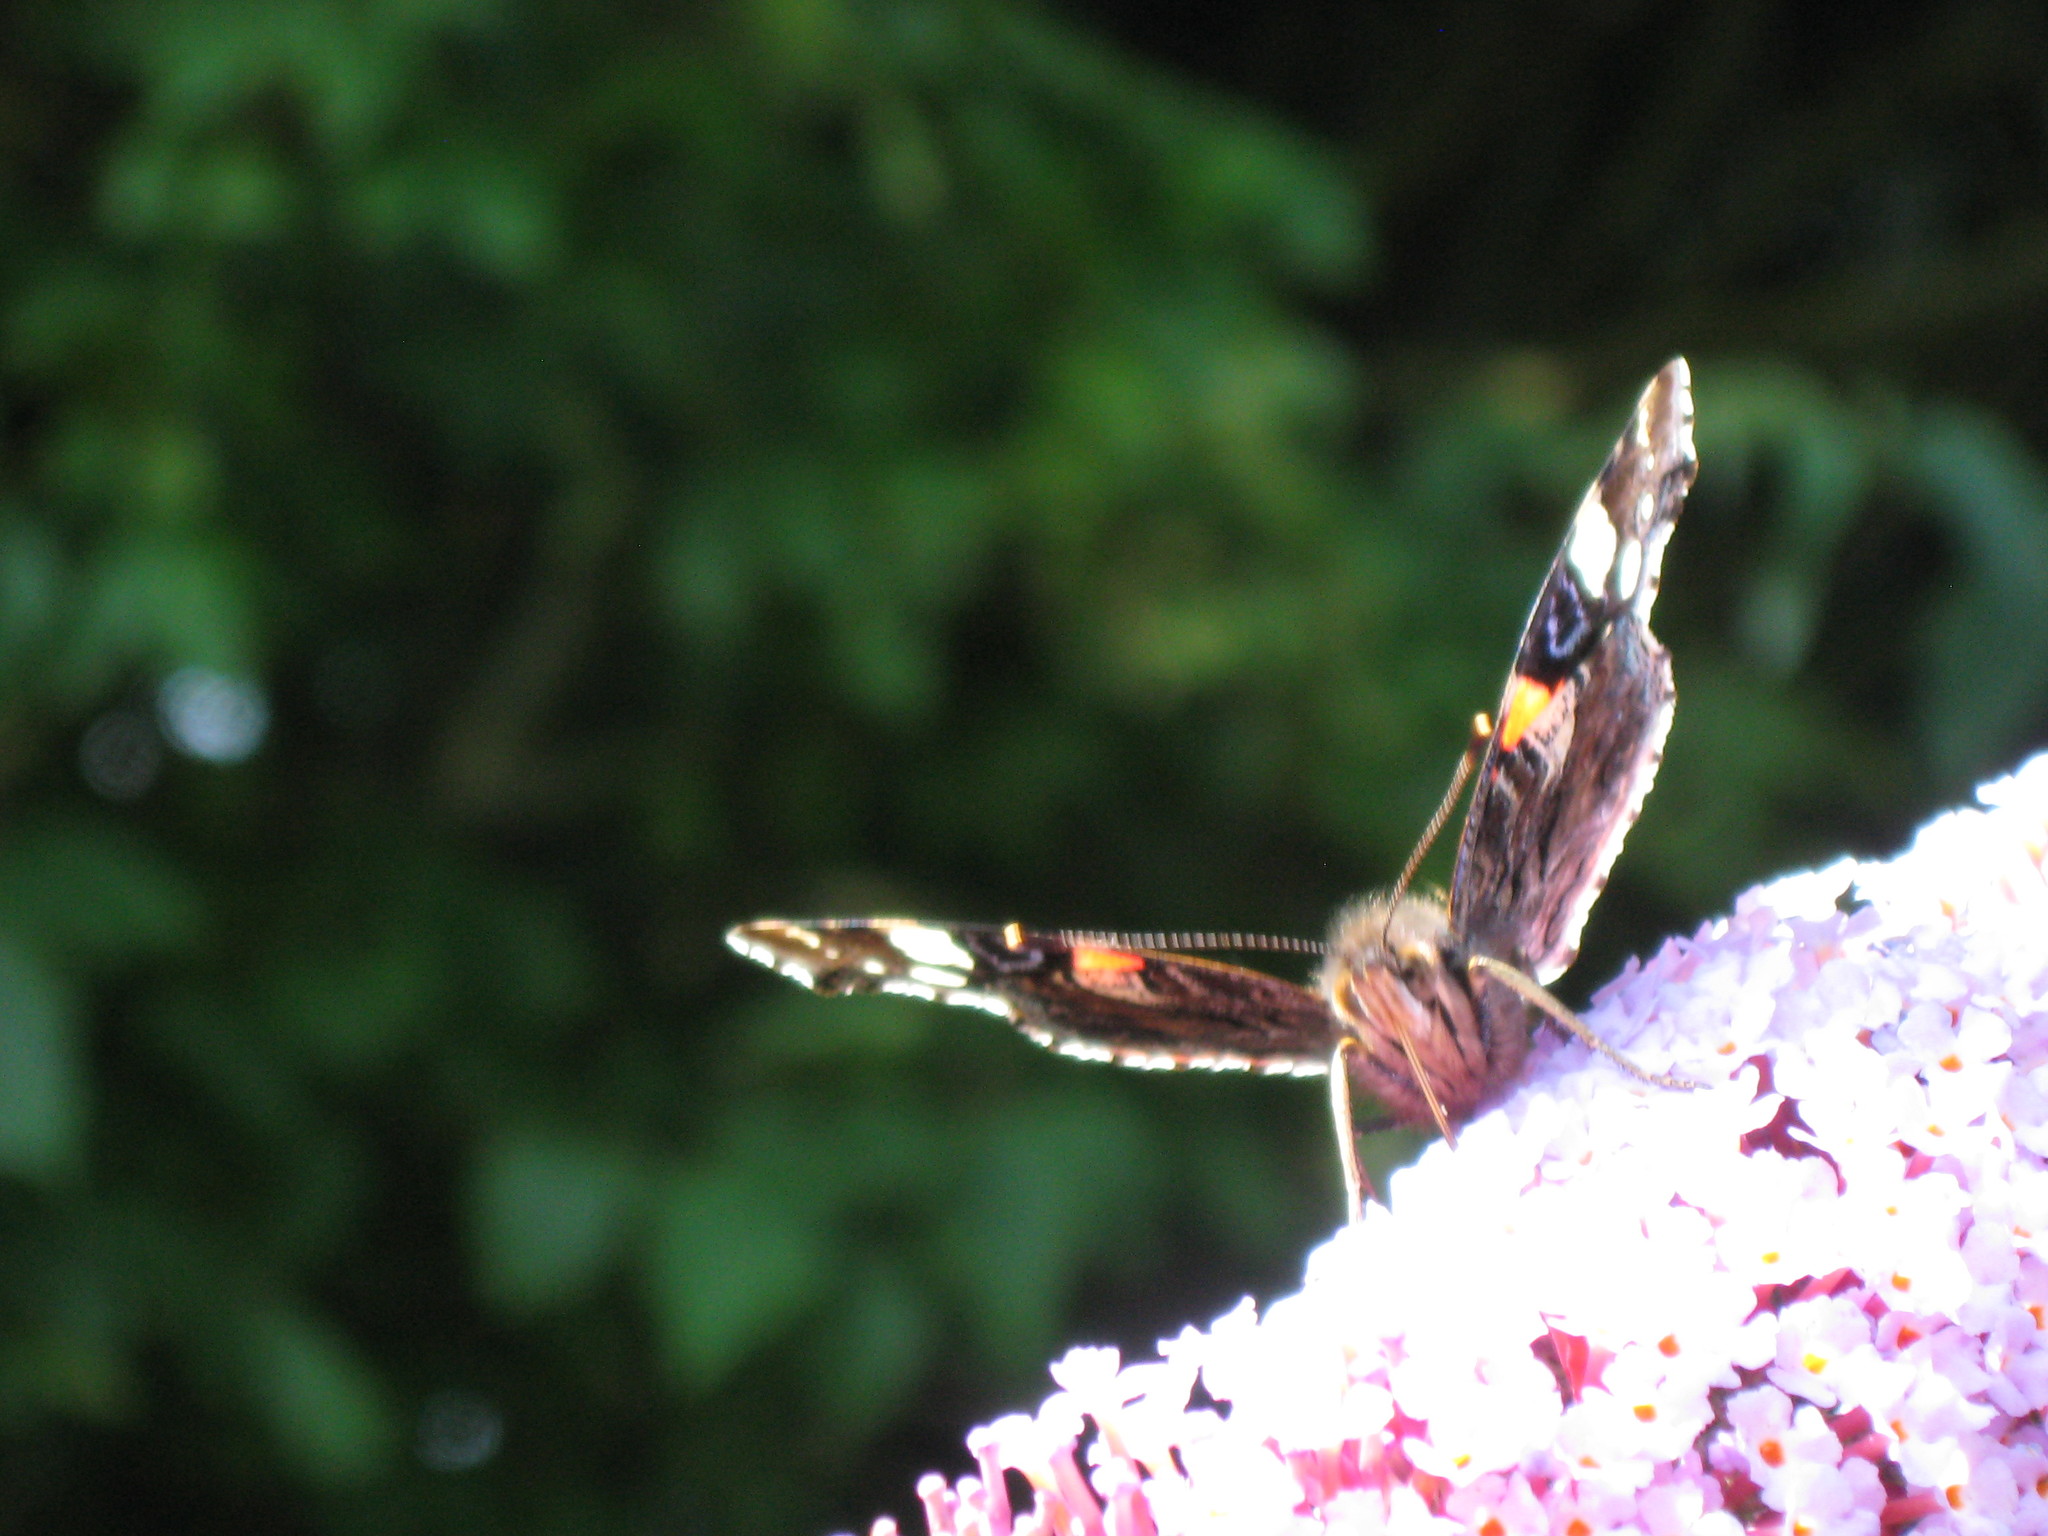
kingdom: Animalia
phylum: Arthropoda
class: Insecta
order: Lepidoptera
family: Nymphalidae
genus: Vanessa
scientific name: Vanessa atalanta
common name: Red admiral
